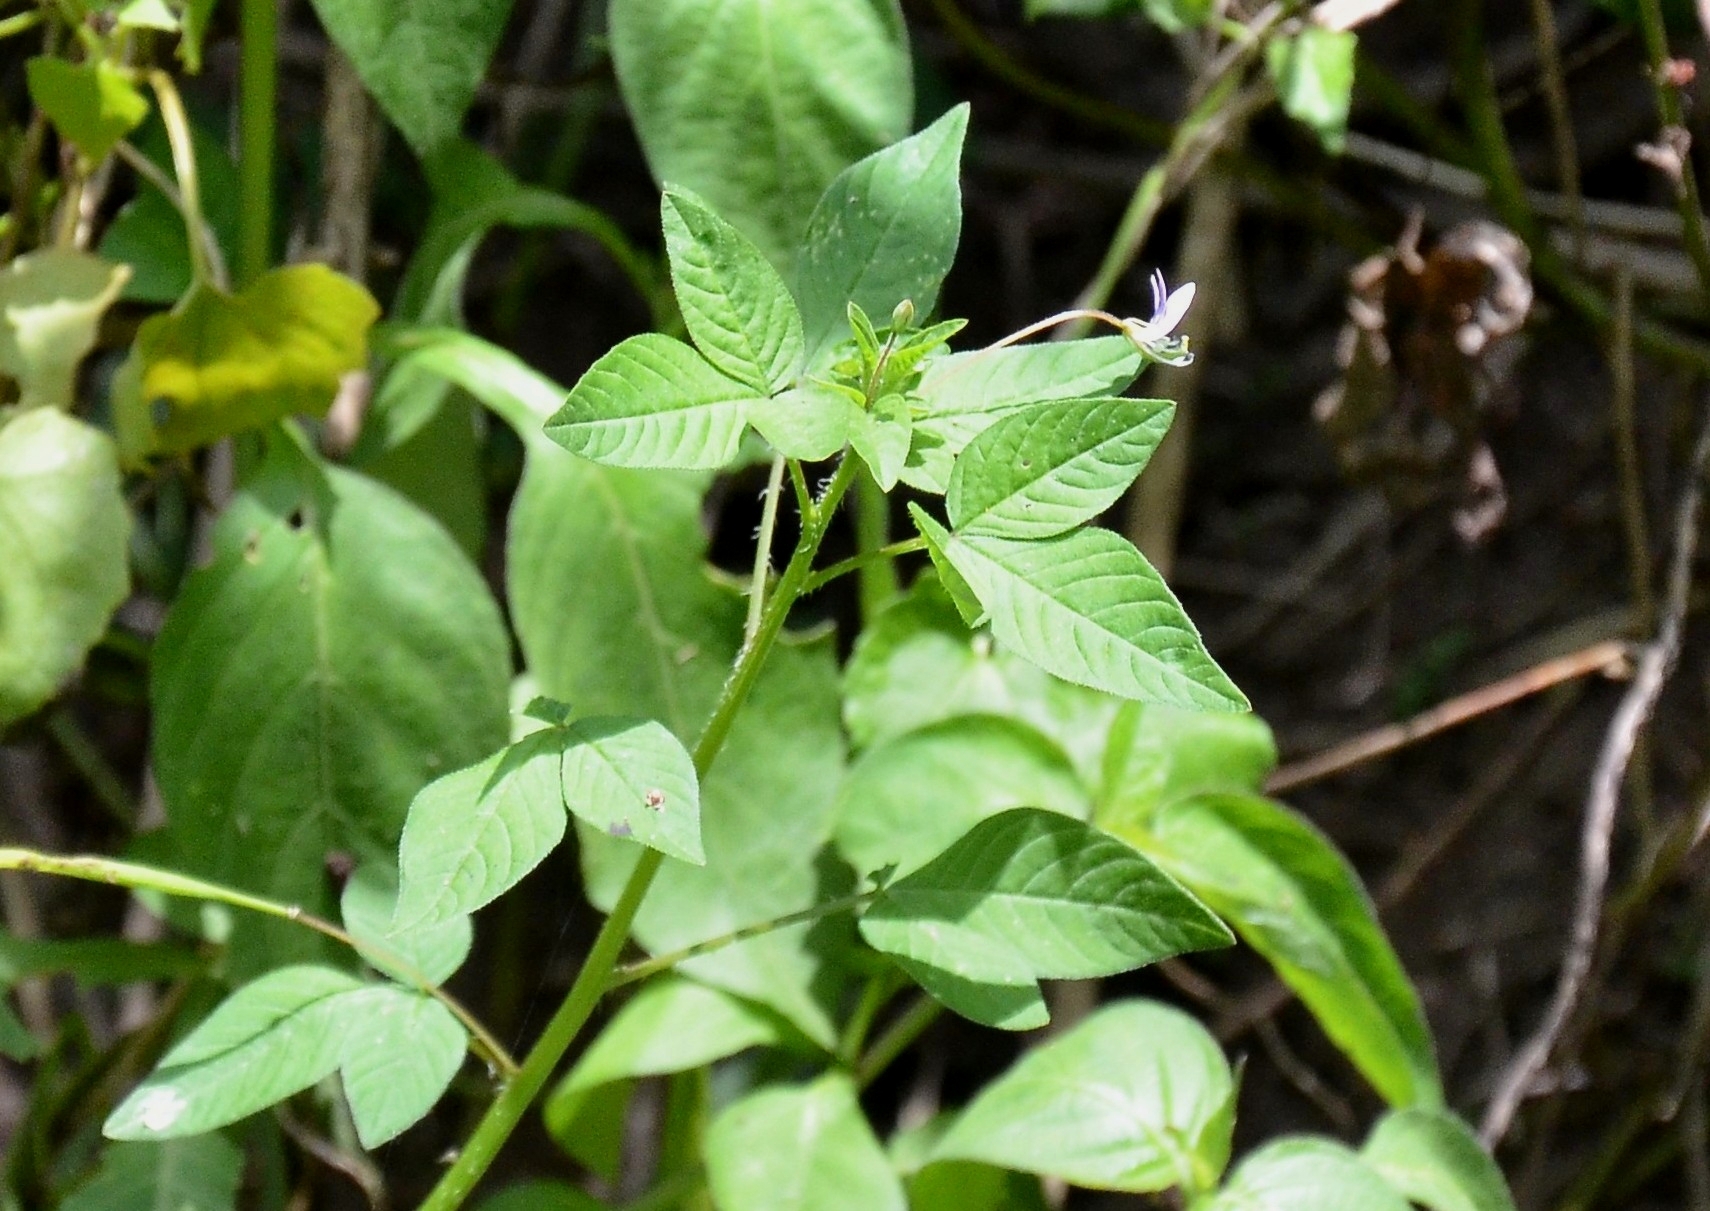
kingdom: Plantae
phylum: Tracheophyta
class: Magnoliopsida
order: Brassicales
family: Cleomaceae
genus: Sieruela
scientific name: Sieruela rutidosperma
